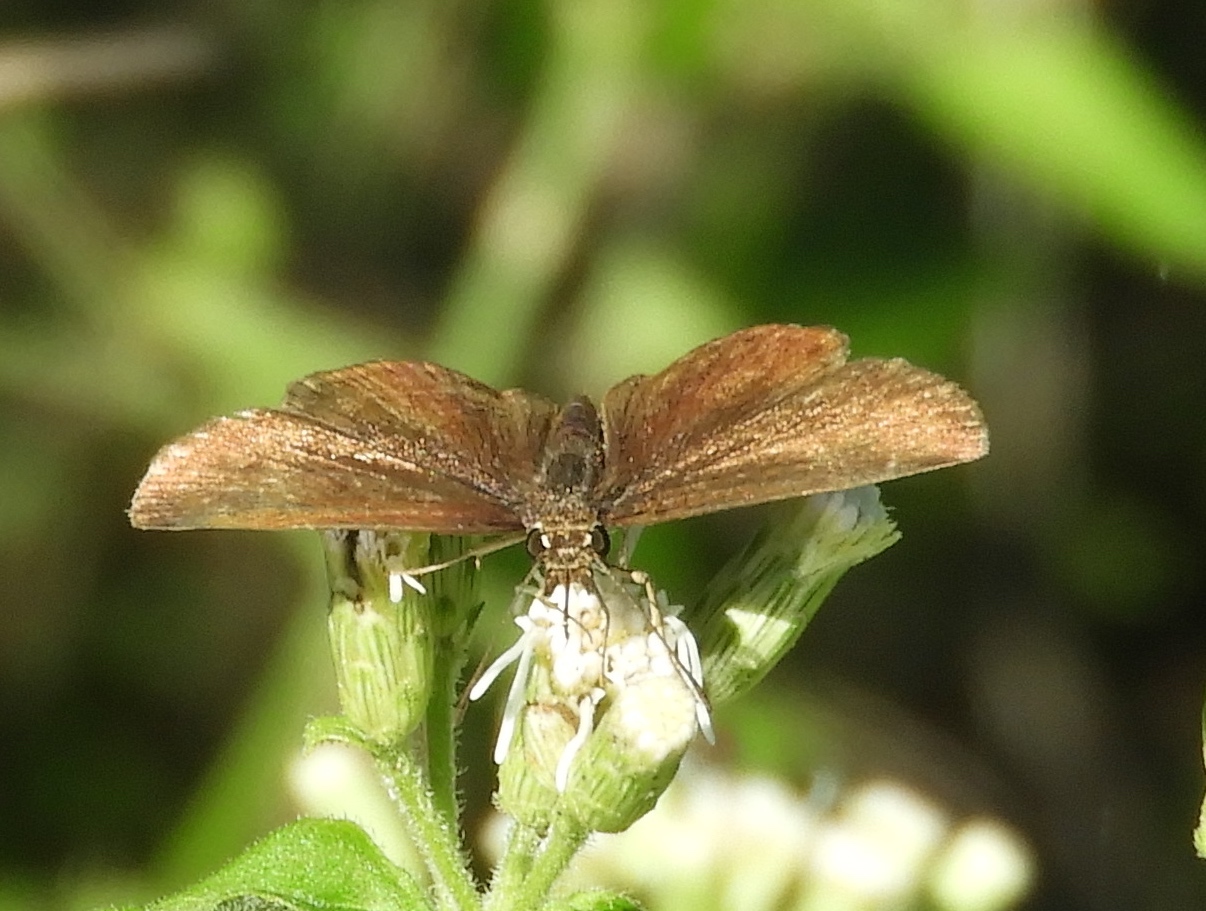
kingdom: Animalia
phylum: Arthropoda
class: Insecta
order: Lepidoptera
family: Hesperiidae
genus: Pyrginae
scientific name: Pyrginae
